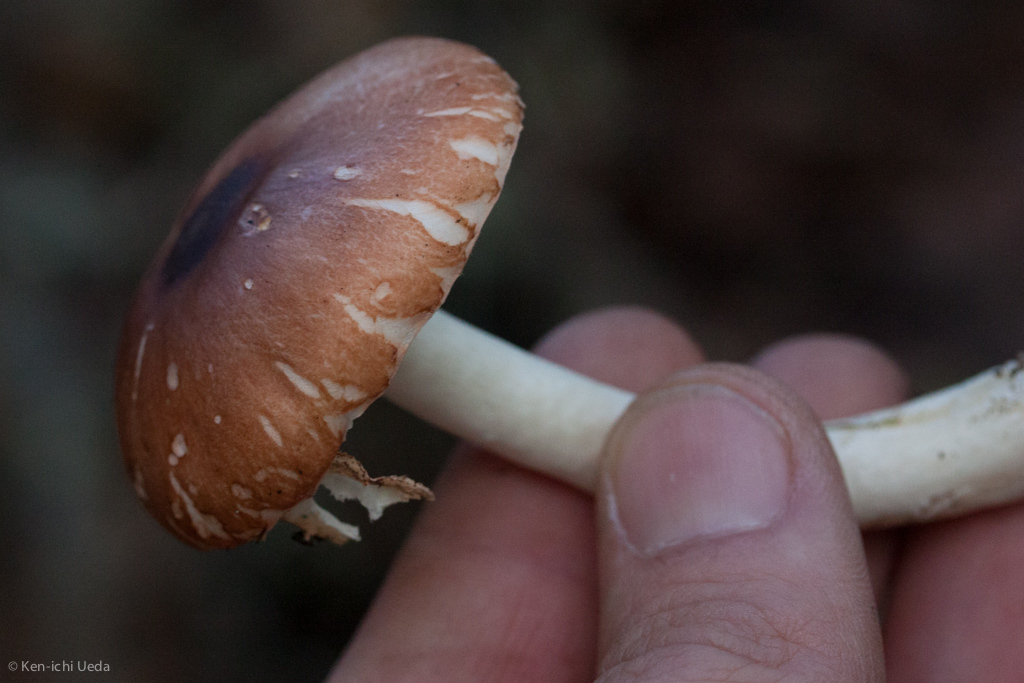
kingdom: Fungi
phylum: Basidiomycota
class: Agaricomycetes
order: Agaricales
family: Agaricaceae
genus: Leucoagaricus
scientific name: Leucoagaricus rubrotinctus
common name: Ruby dapperling
